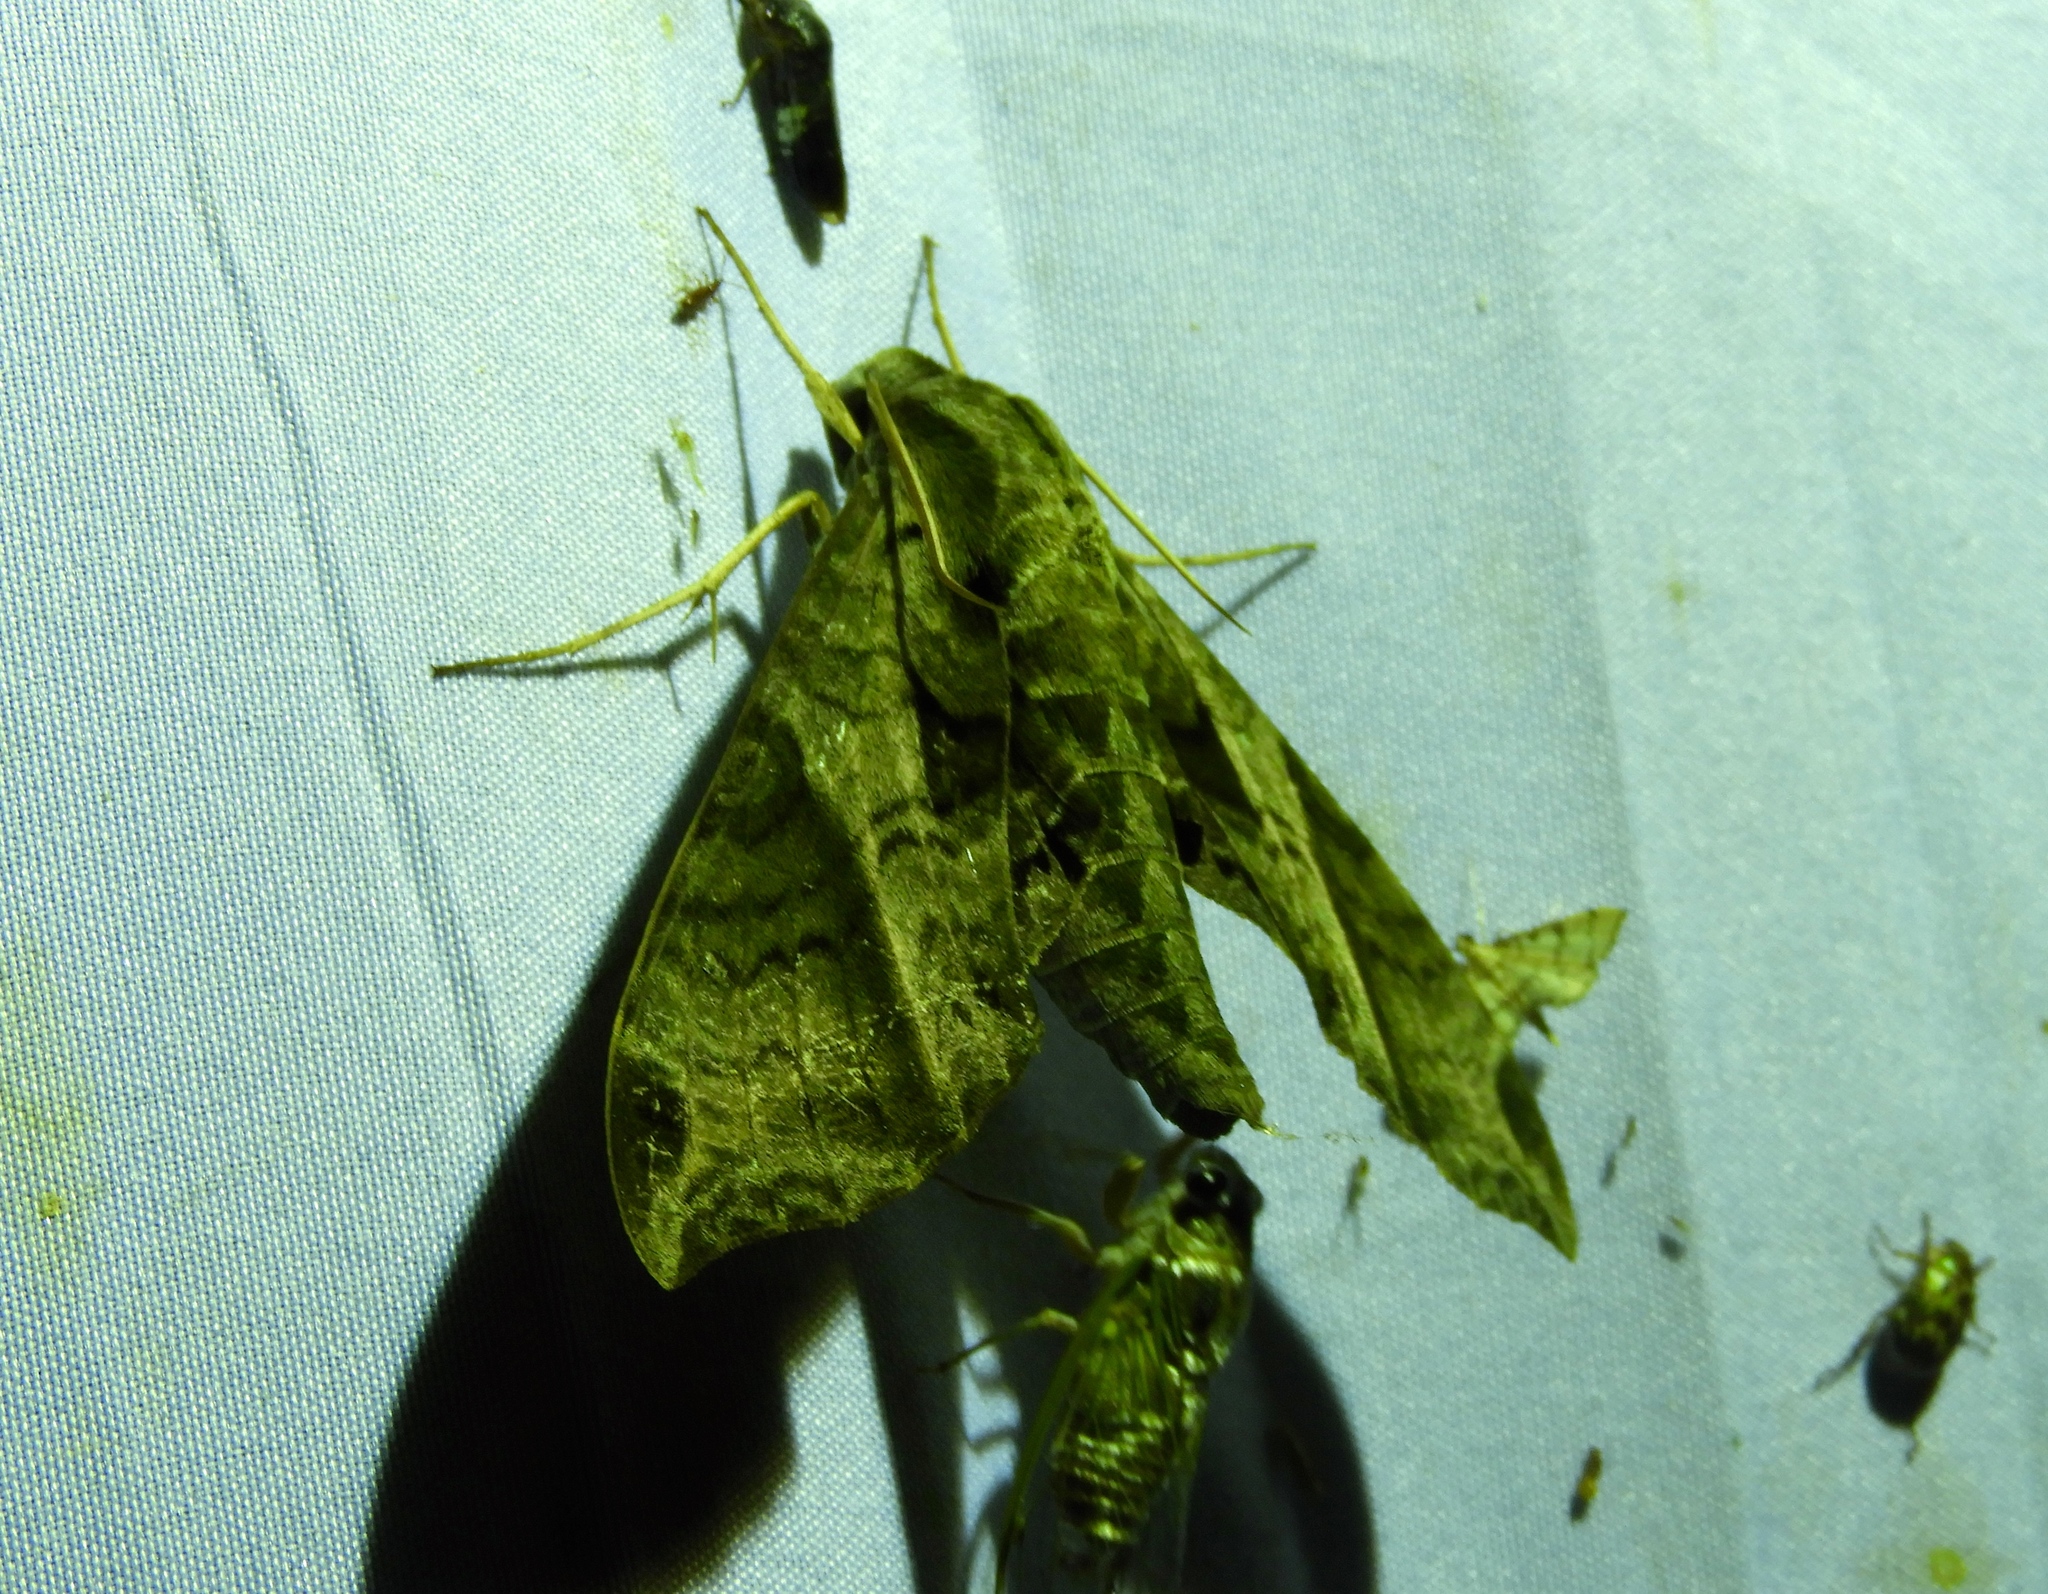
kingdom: Animalia
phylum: Arthropoda
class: Insecta
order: Lepidoptera
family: Sphingidae
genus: Eumorpha
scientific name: Eumorpha satellitia
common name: Satellite sphinx
